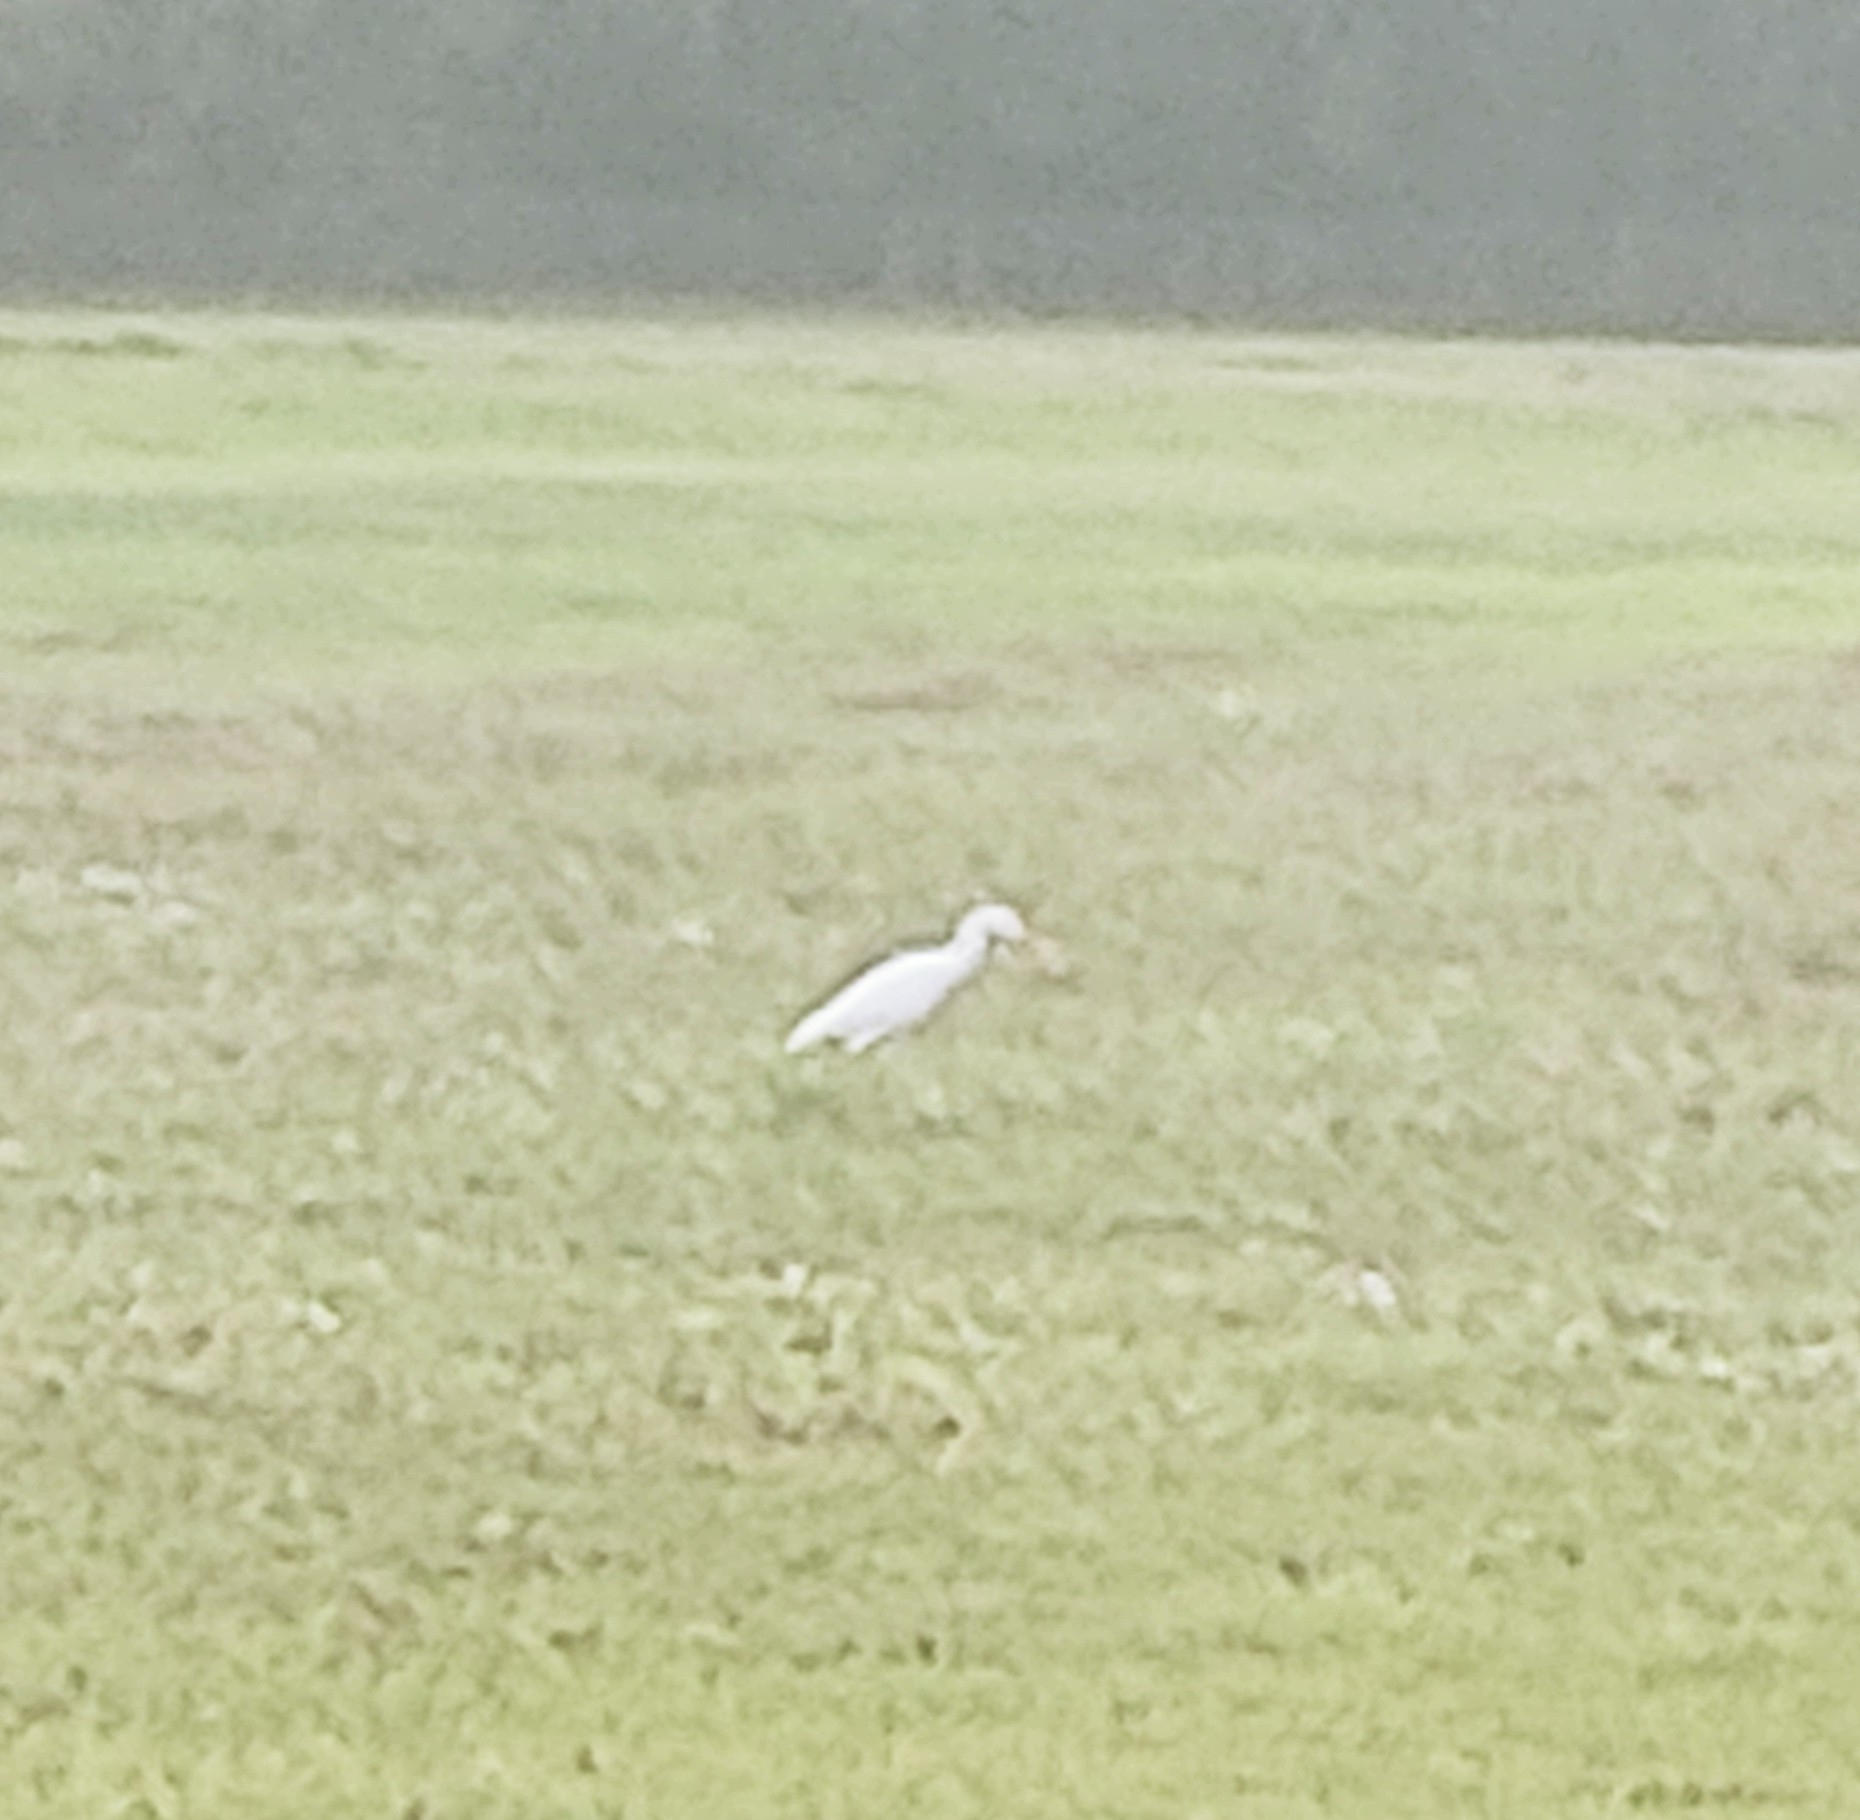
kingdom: Animalia
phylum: Chordata
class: Aves
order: Pelecaniformes
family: Ardeidae
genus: Bubulcus
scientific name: Bubulcus ibis
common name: Cattle egret
